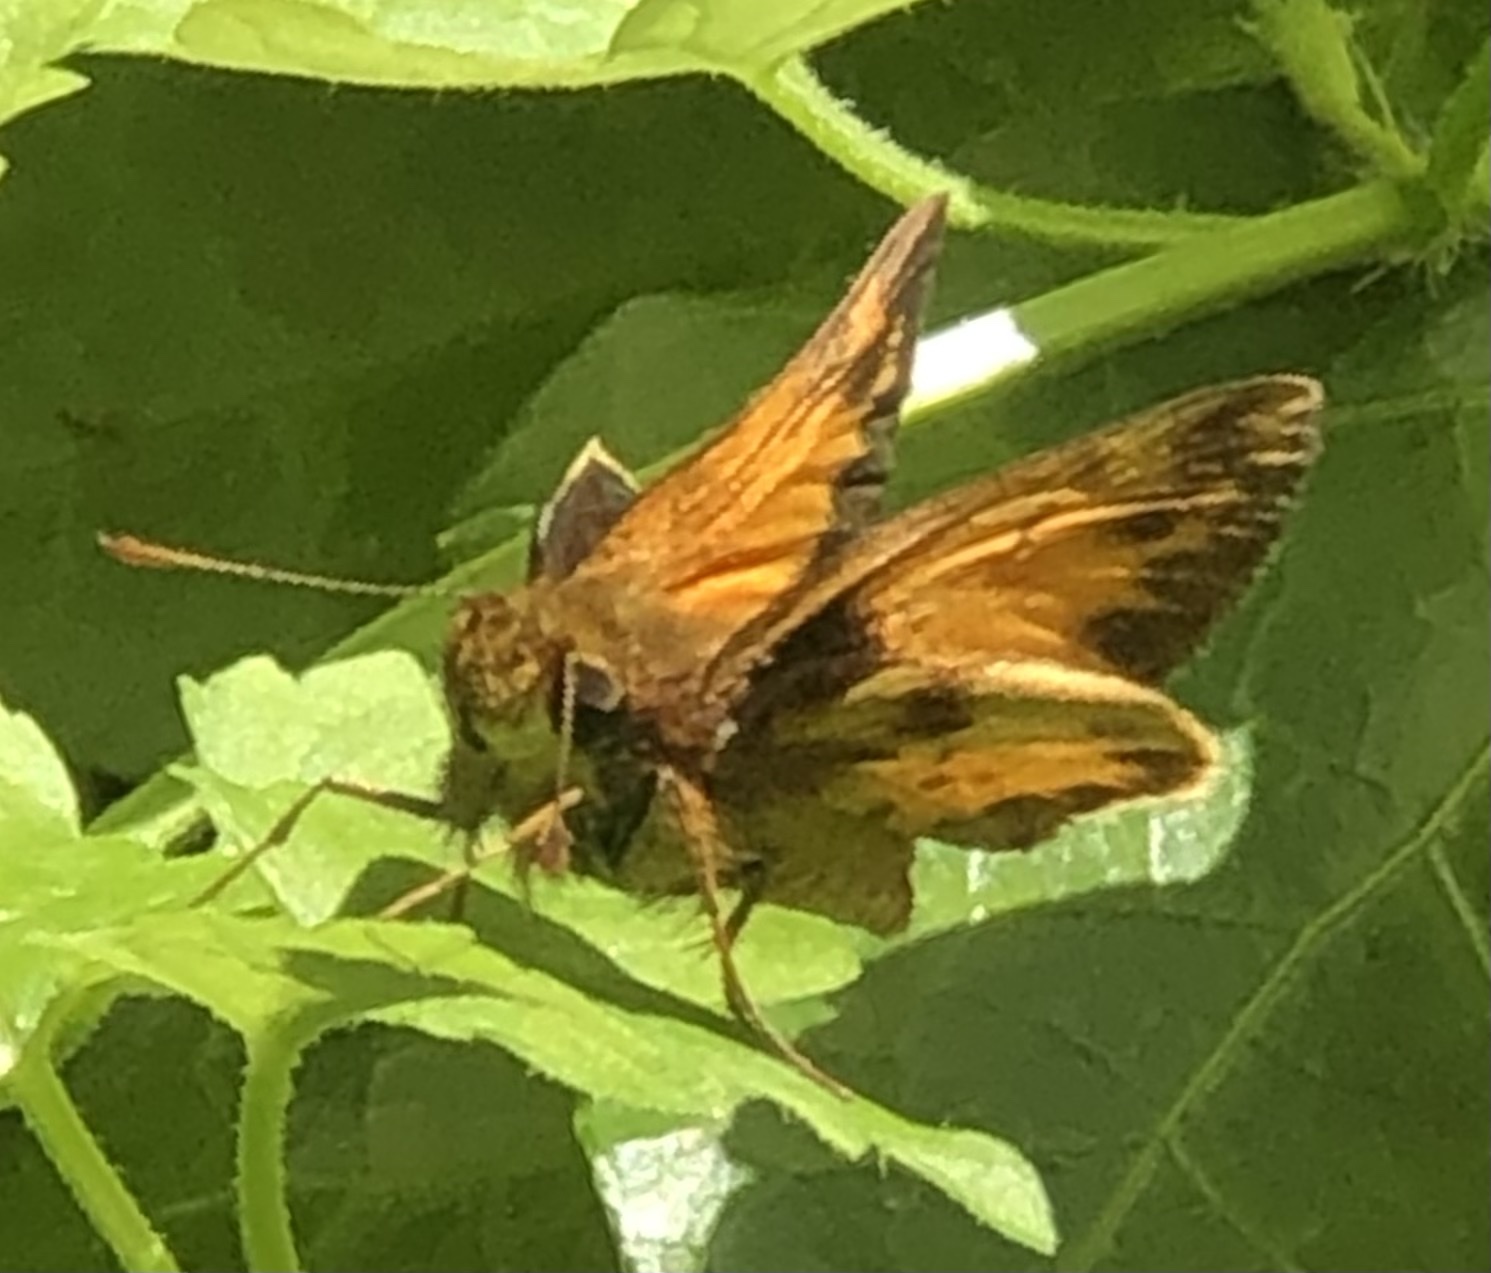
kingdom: Animalia
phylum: Arthropoda
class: Insecta
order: Lepidoptera
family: Hesperiidae
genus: Lon
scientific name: Lon zabulon
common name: Zabulon skipper
